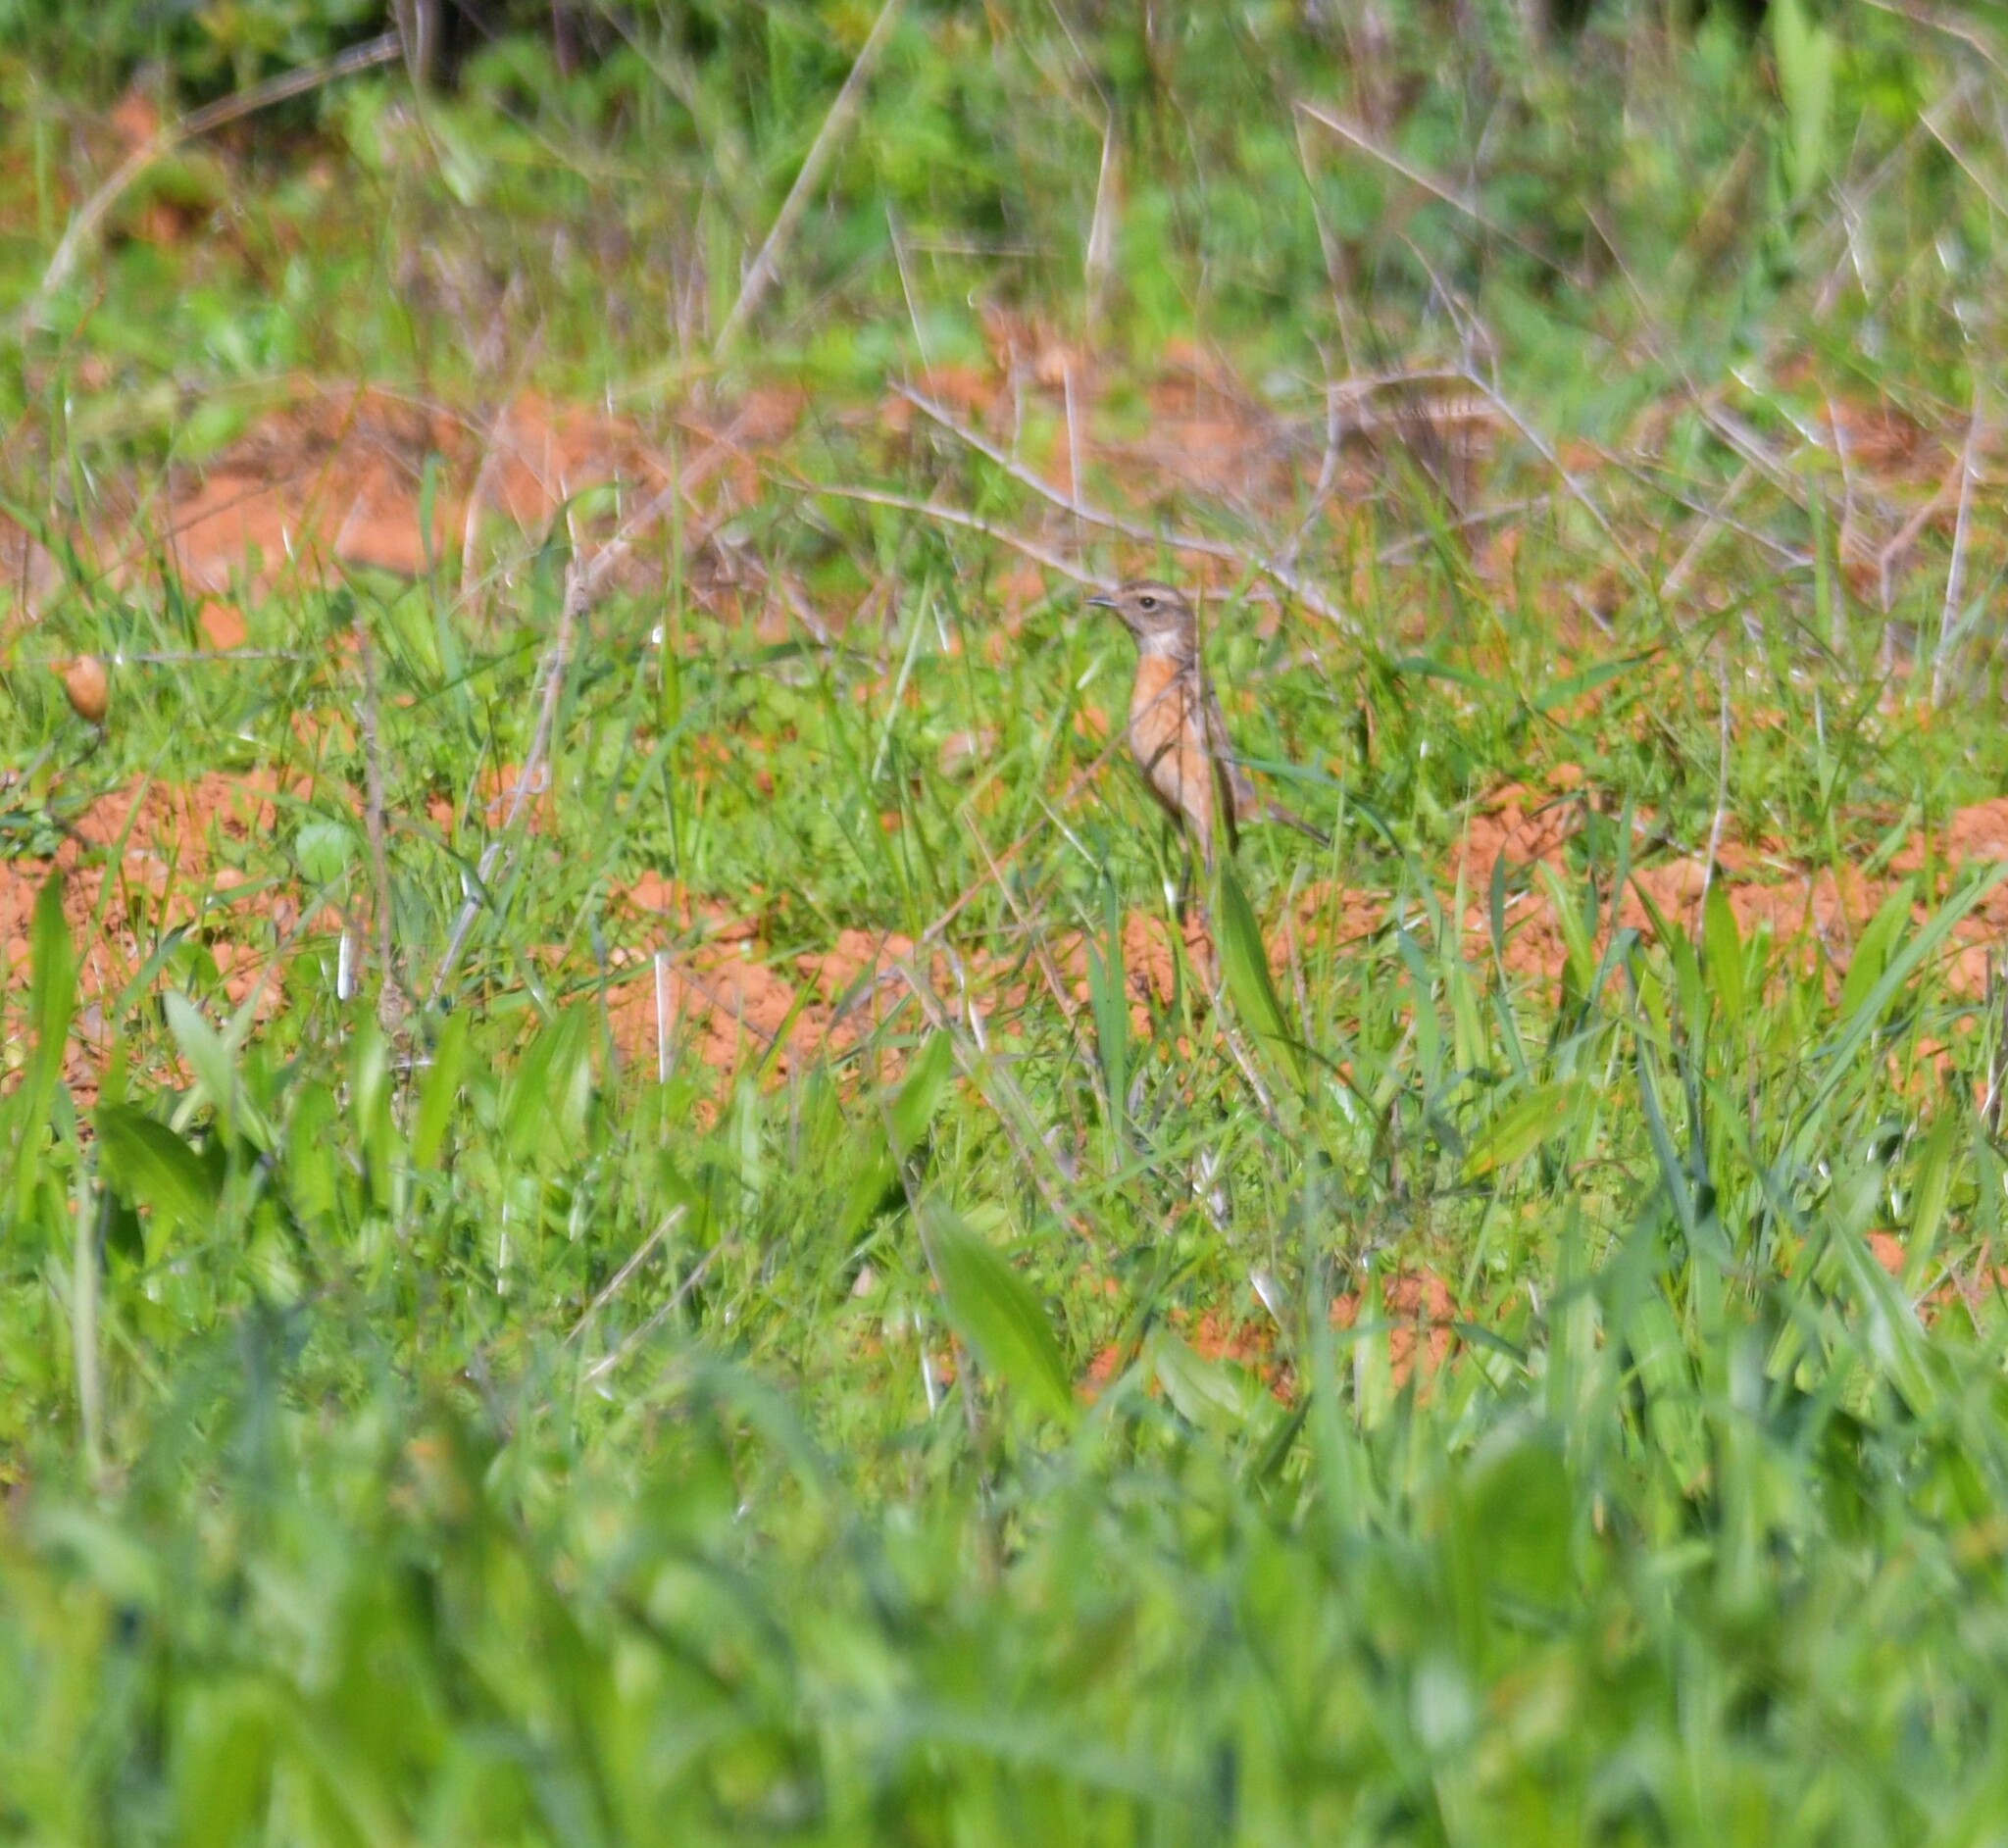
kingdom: Animalia
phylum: Chordata
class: Aves
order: Passeriformes
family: Muscicapidae
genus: Saxicola
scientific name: Saxicola rubicola
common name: European stonechat
